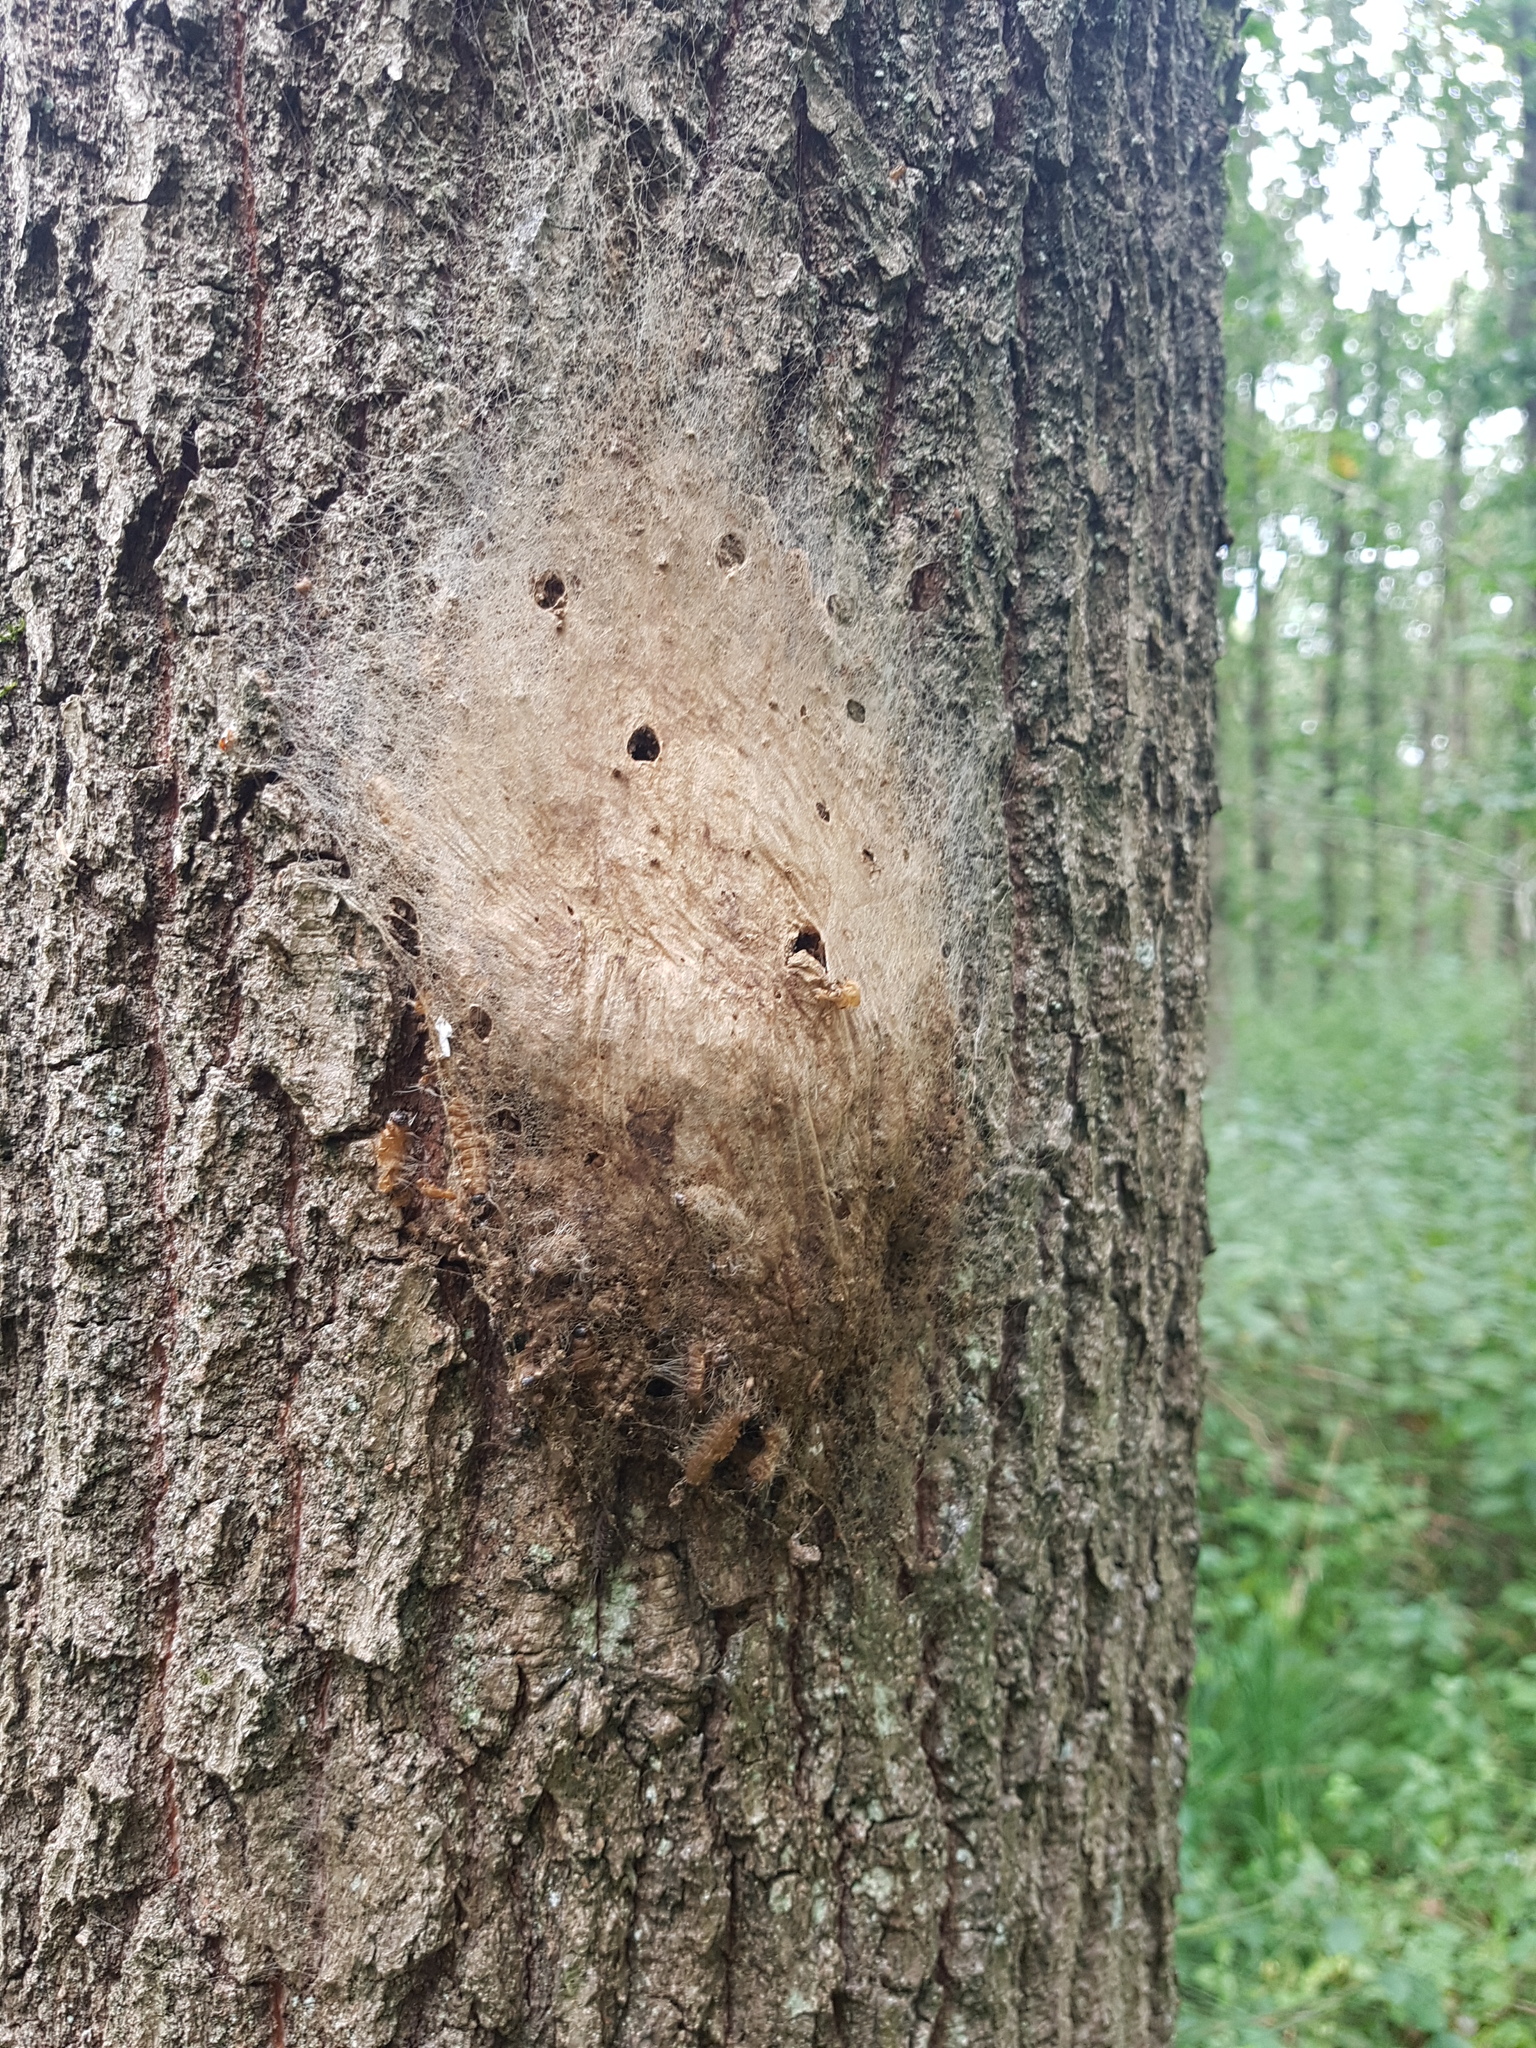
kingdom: Animalia
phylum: Arthropoda
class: Insecta
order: Lepidoptera
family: Notodontidae
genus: Thaumetopoea
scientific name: Thaumetopoea processionea
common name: Oak processionea
